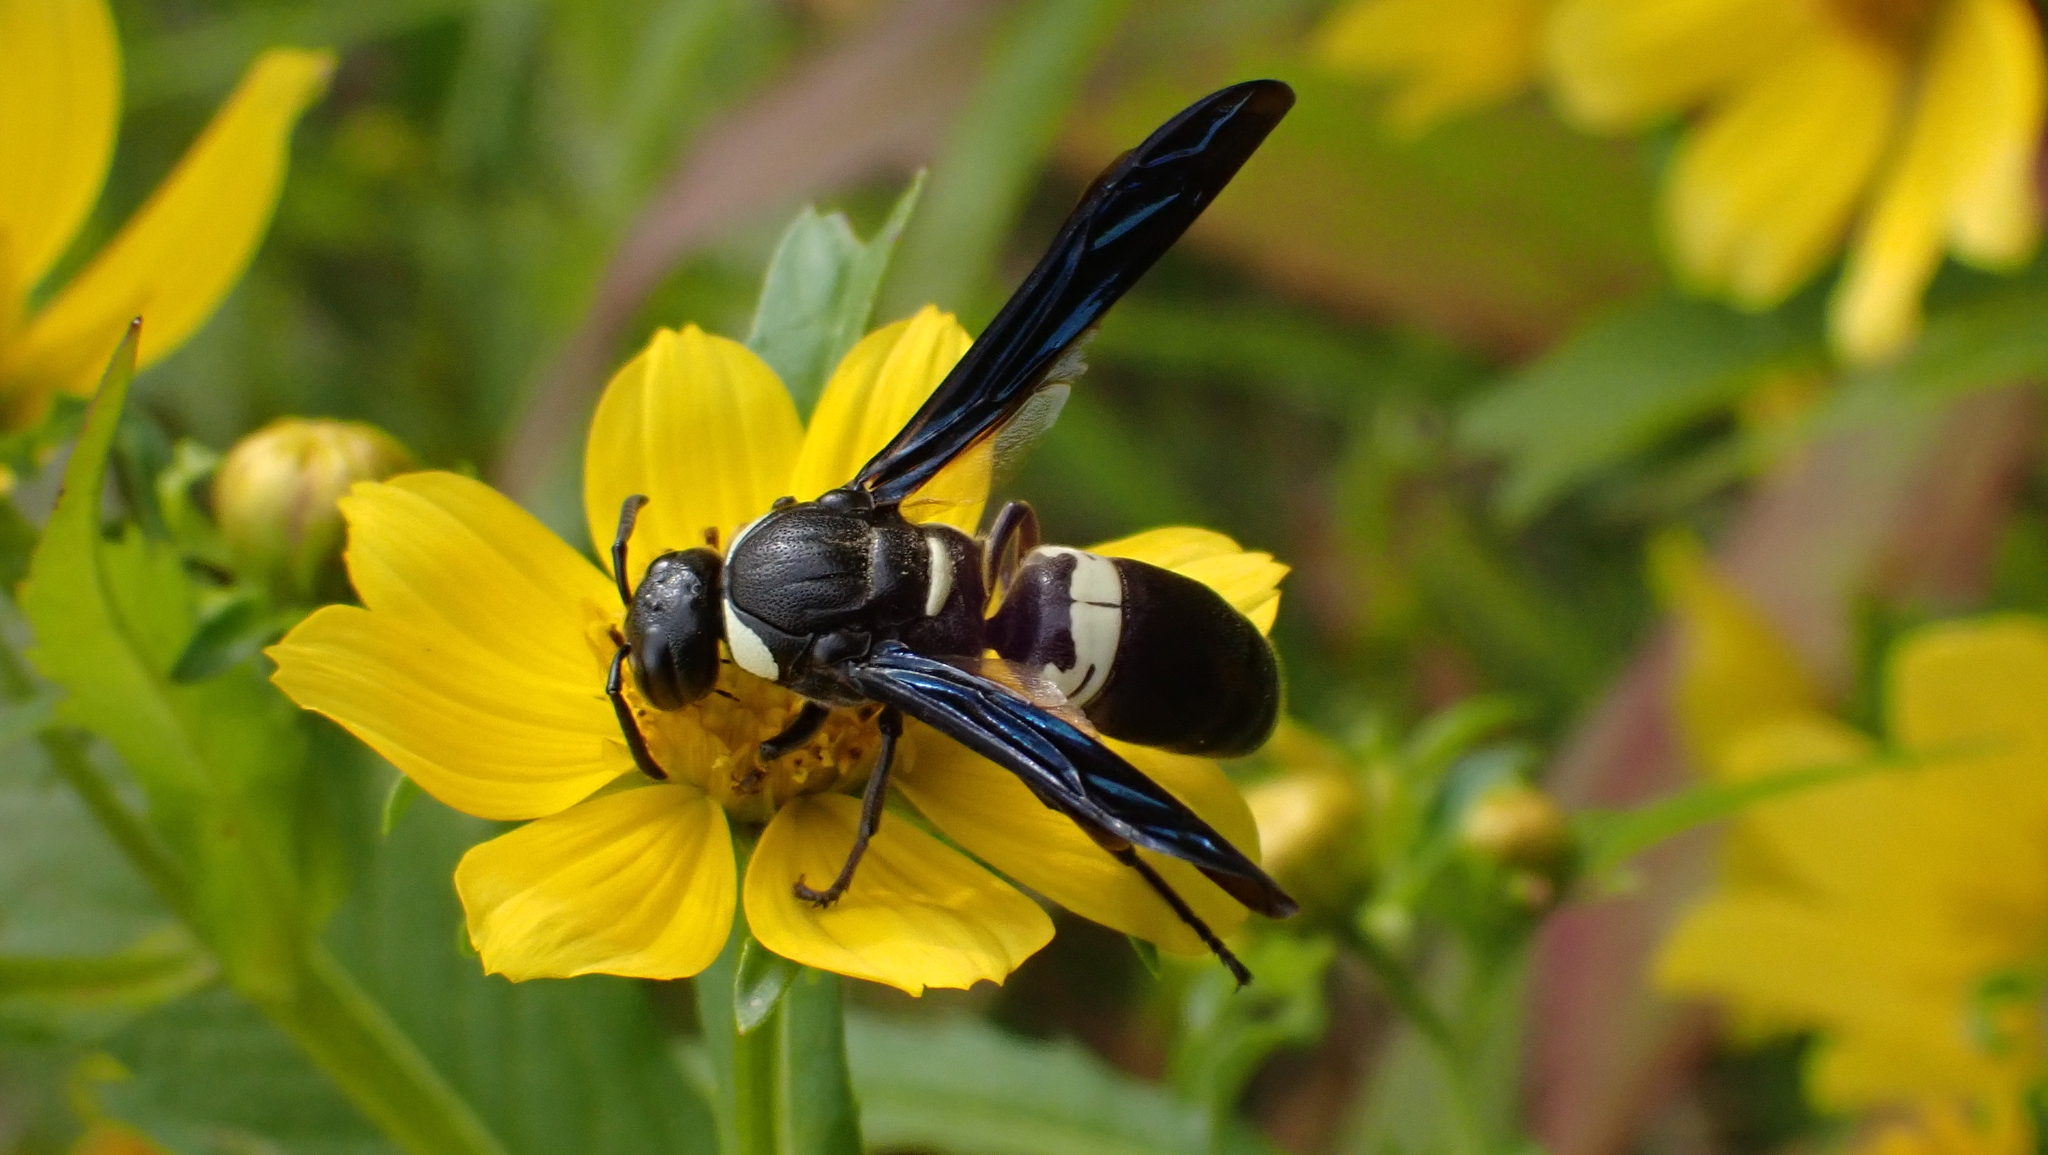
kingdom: Animalia
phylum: Arthropoda
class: Insecta
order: Hymenoptera
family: Eumenidae
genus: Monobia
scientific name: Monobia quadridens
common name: Four-toothed mason wasp
